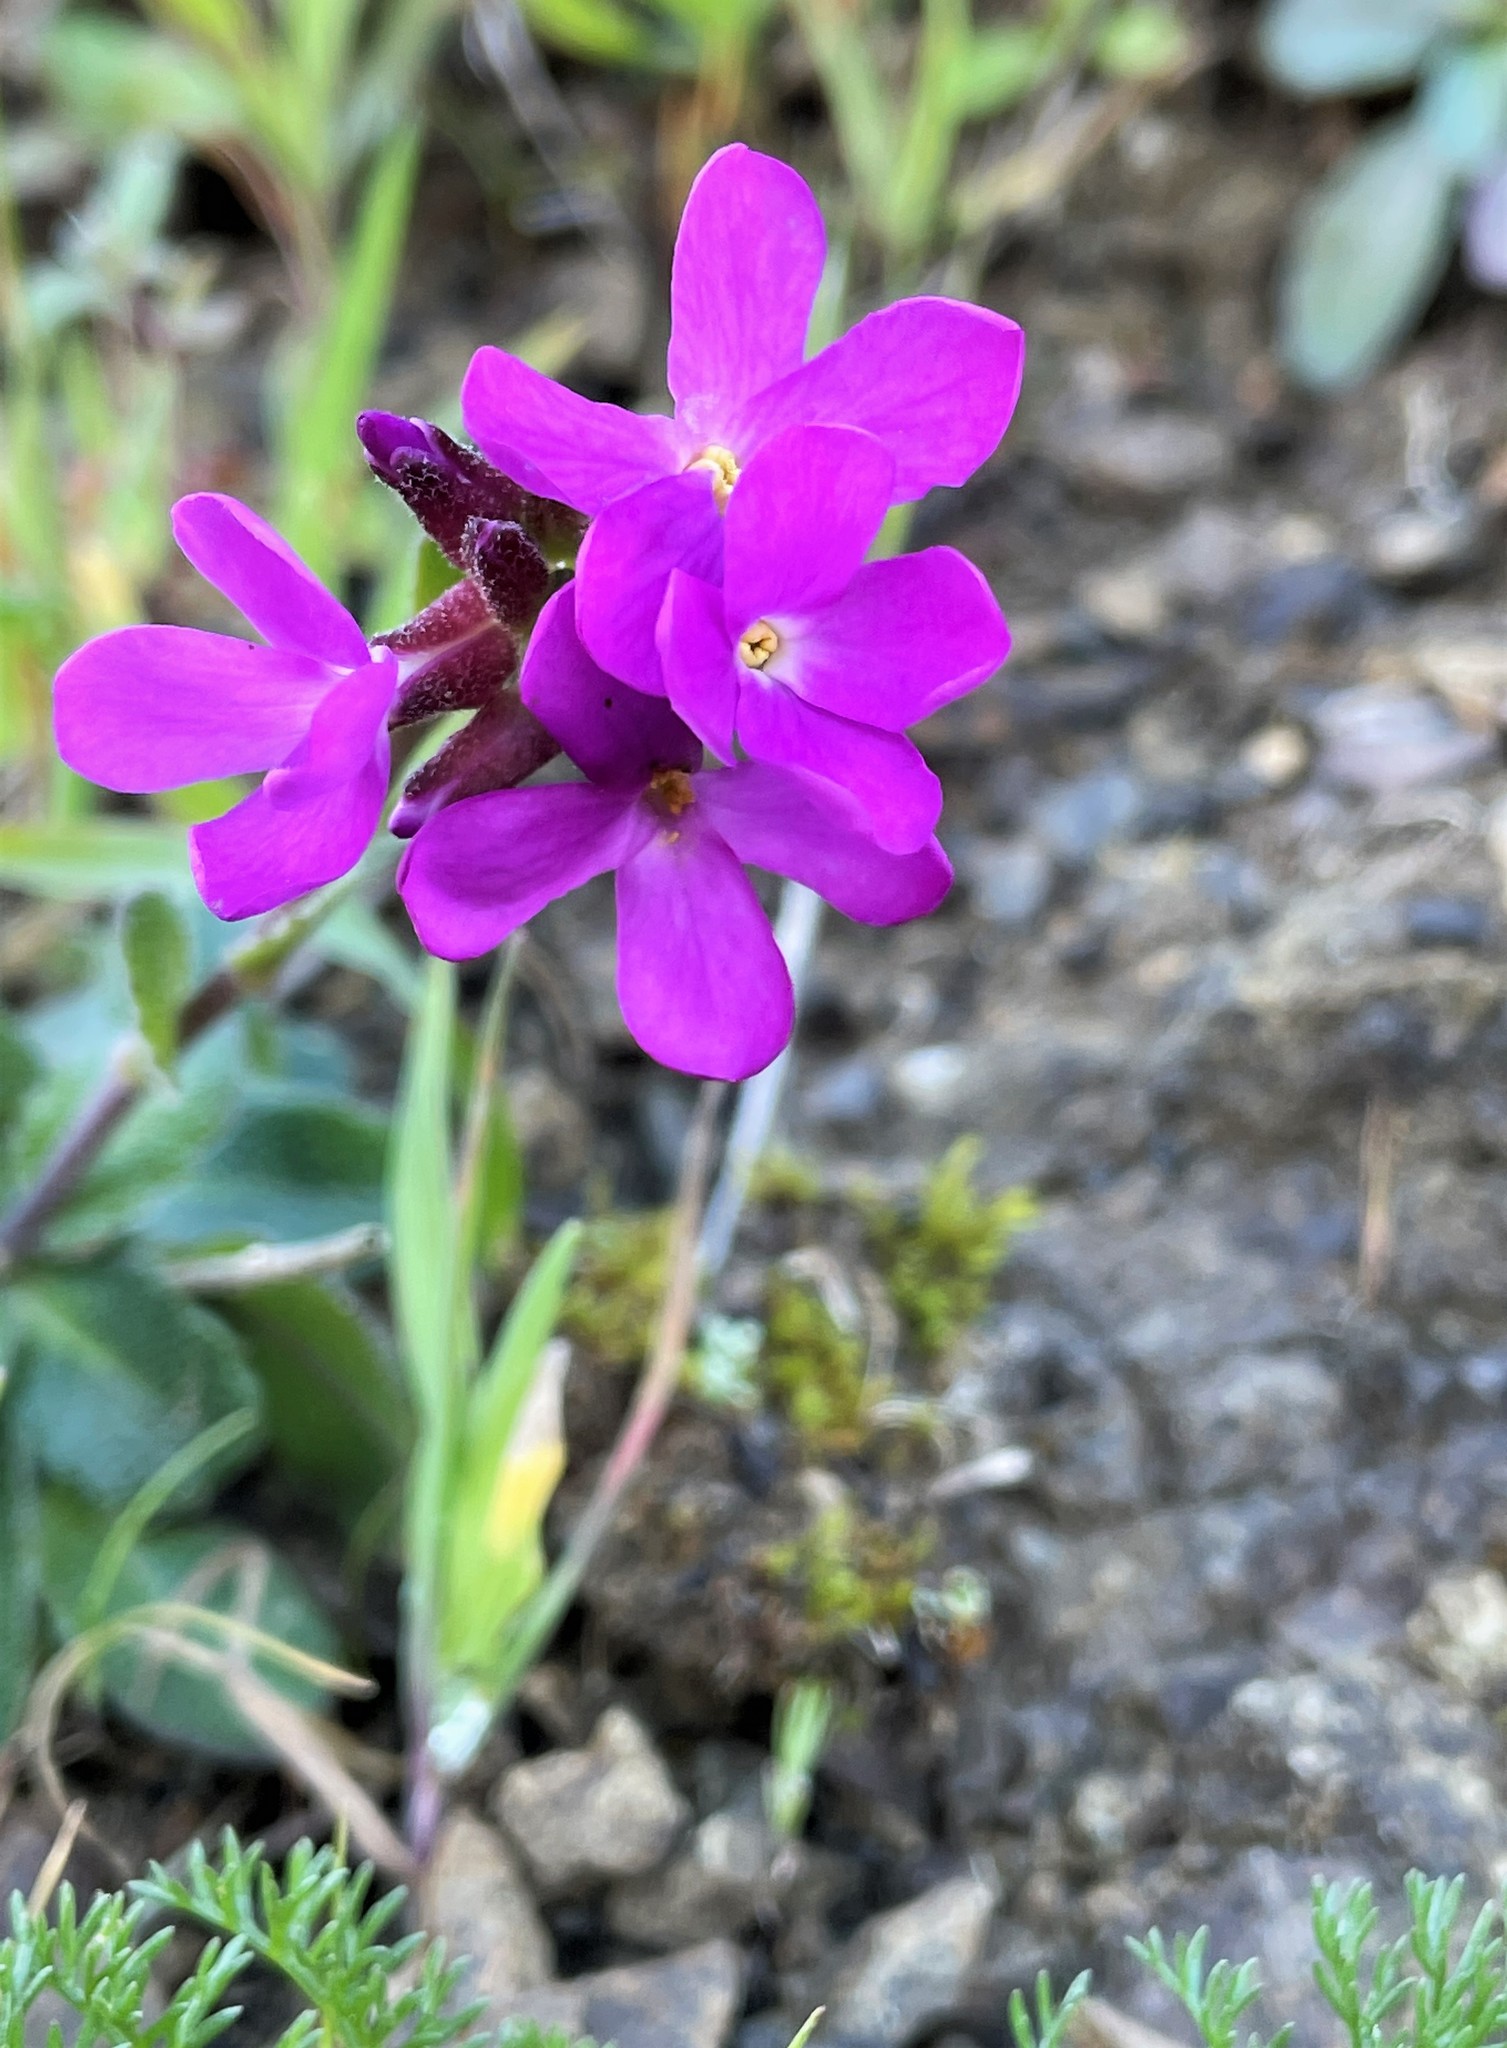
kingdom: Plantae
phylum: Tracheophyta
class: Magnoliopsida
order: Brassicales
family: Brassicaceae
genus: Arabis
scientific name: Arabis blepharophylla
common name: Rose rockcress
